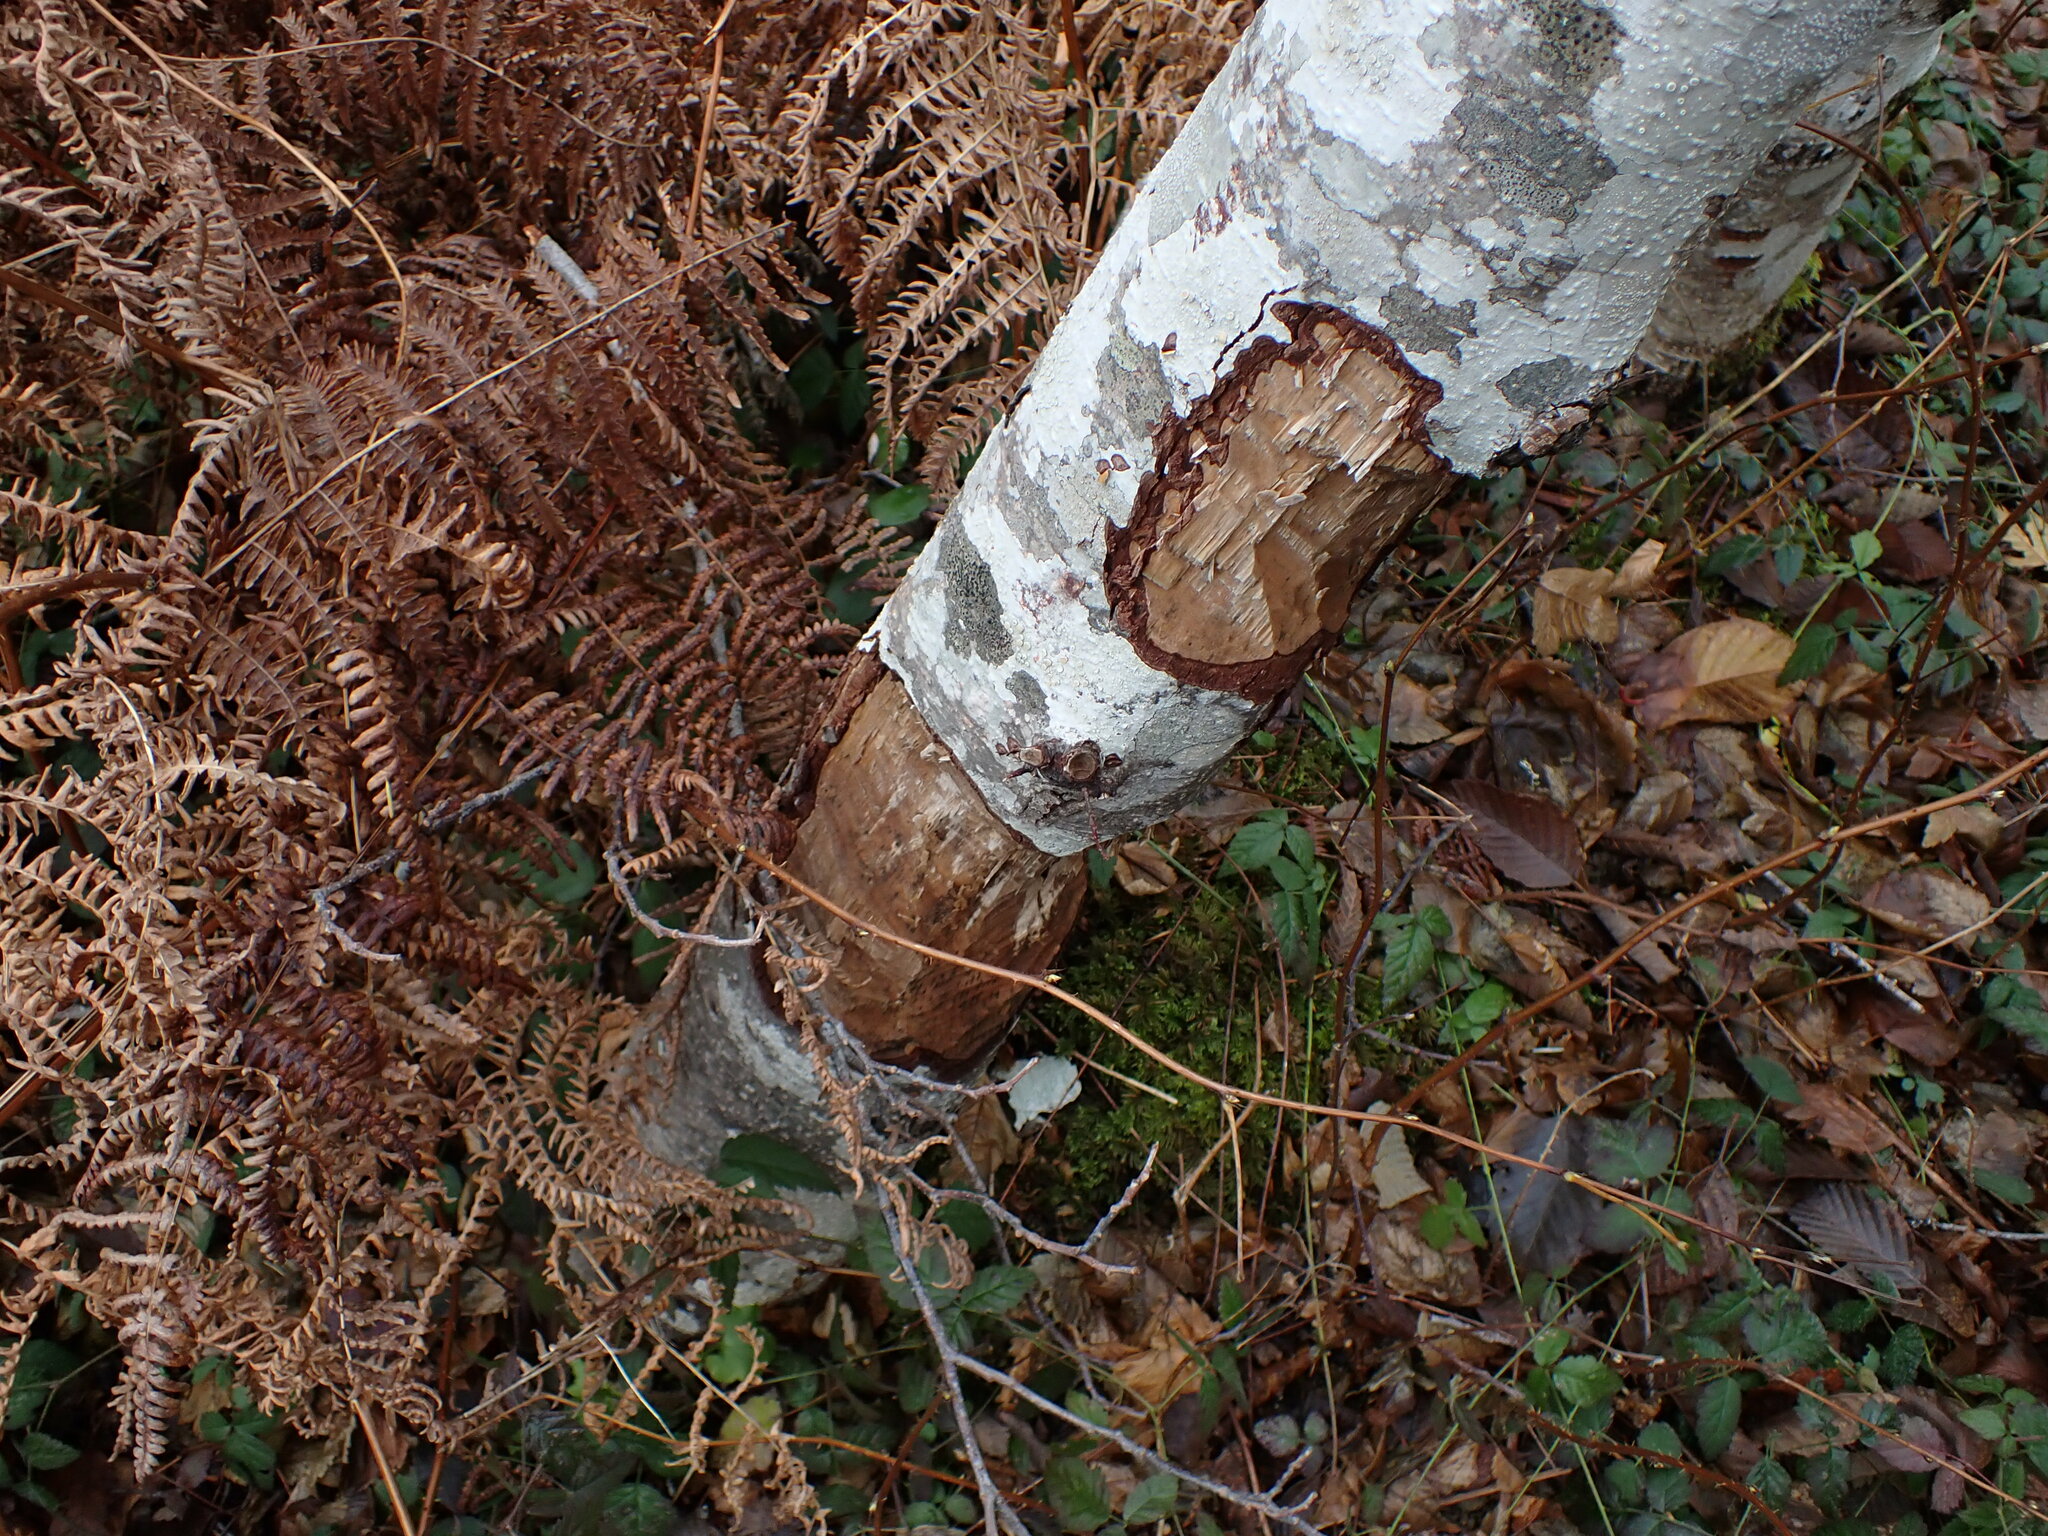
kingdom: Animalia
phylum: Chordata
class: Mammalia
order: Rodentia
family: Castoridae
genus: Castor
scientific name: Castor canadensis
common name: American beaver
